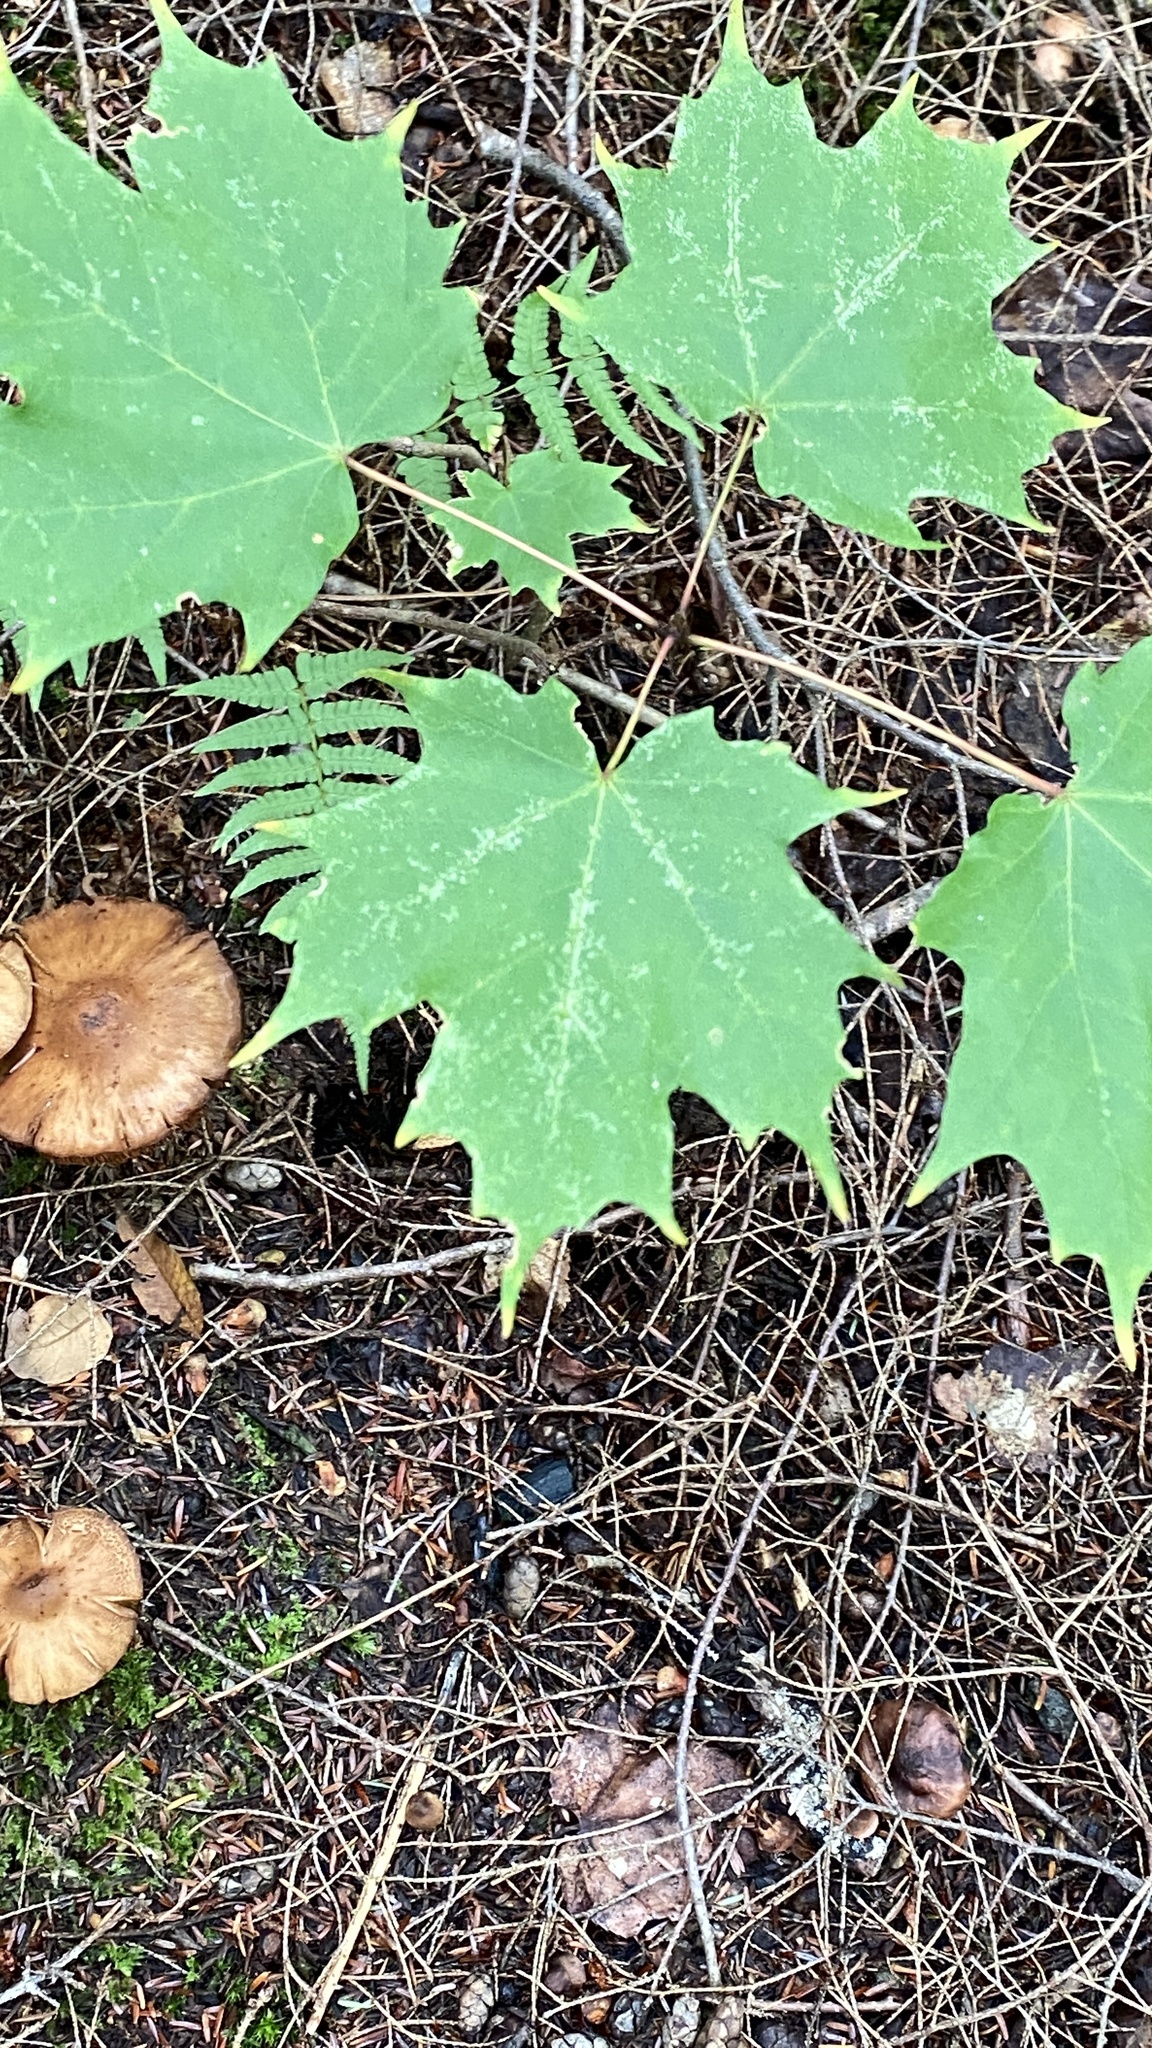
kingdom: Plantae
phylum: Tracheophyta
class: Magnoliopsida
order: Sapindales
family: Sapindaceae
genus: Acer
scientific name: Acer saccharum
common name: Sugar maple
